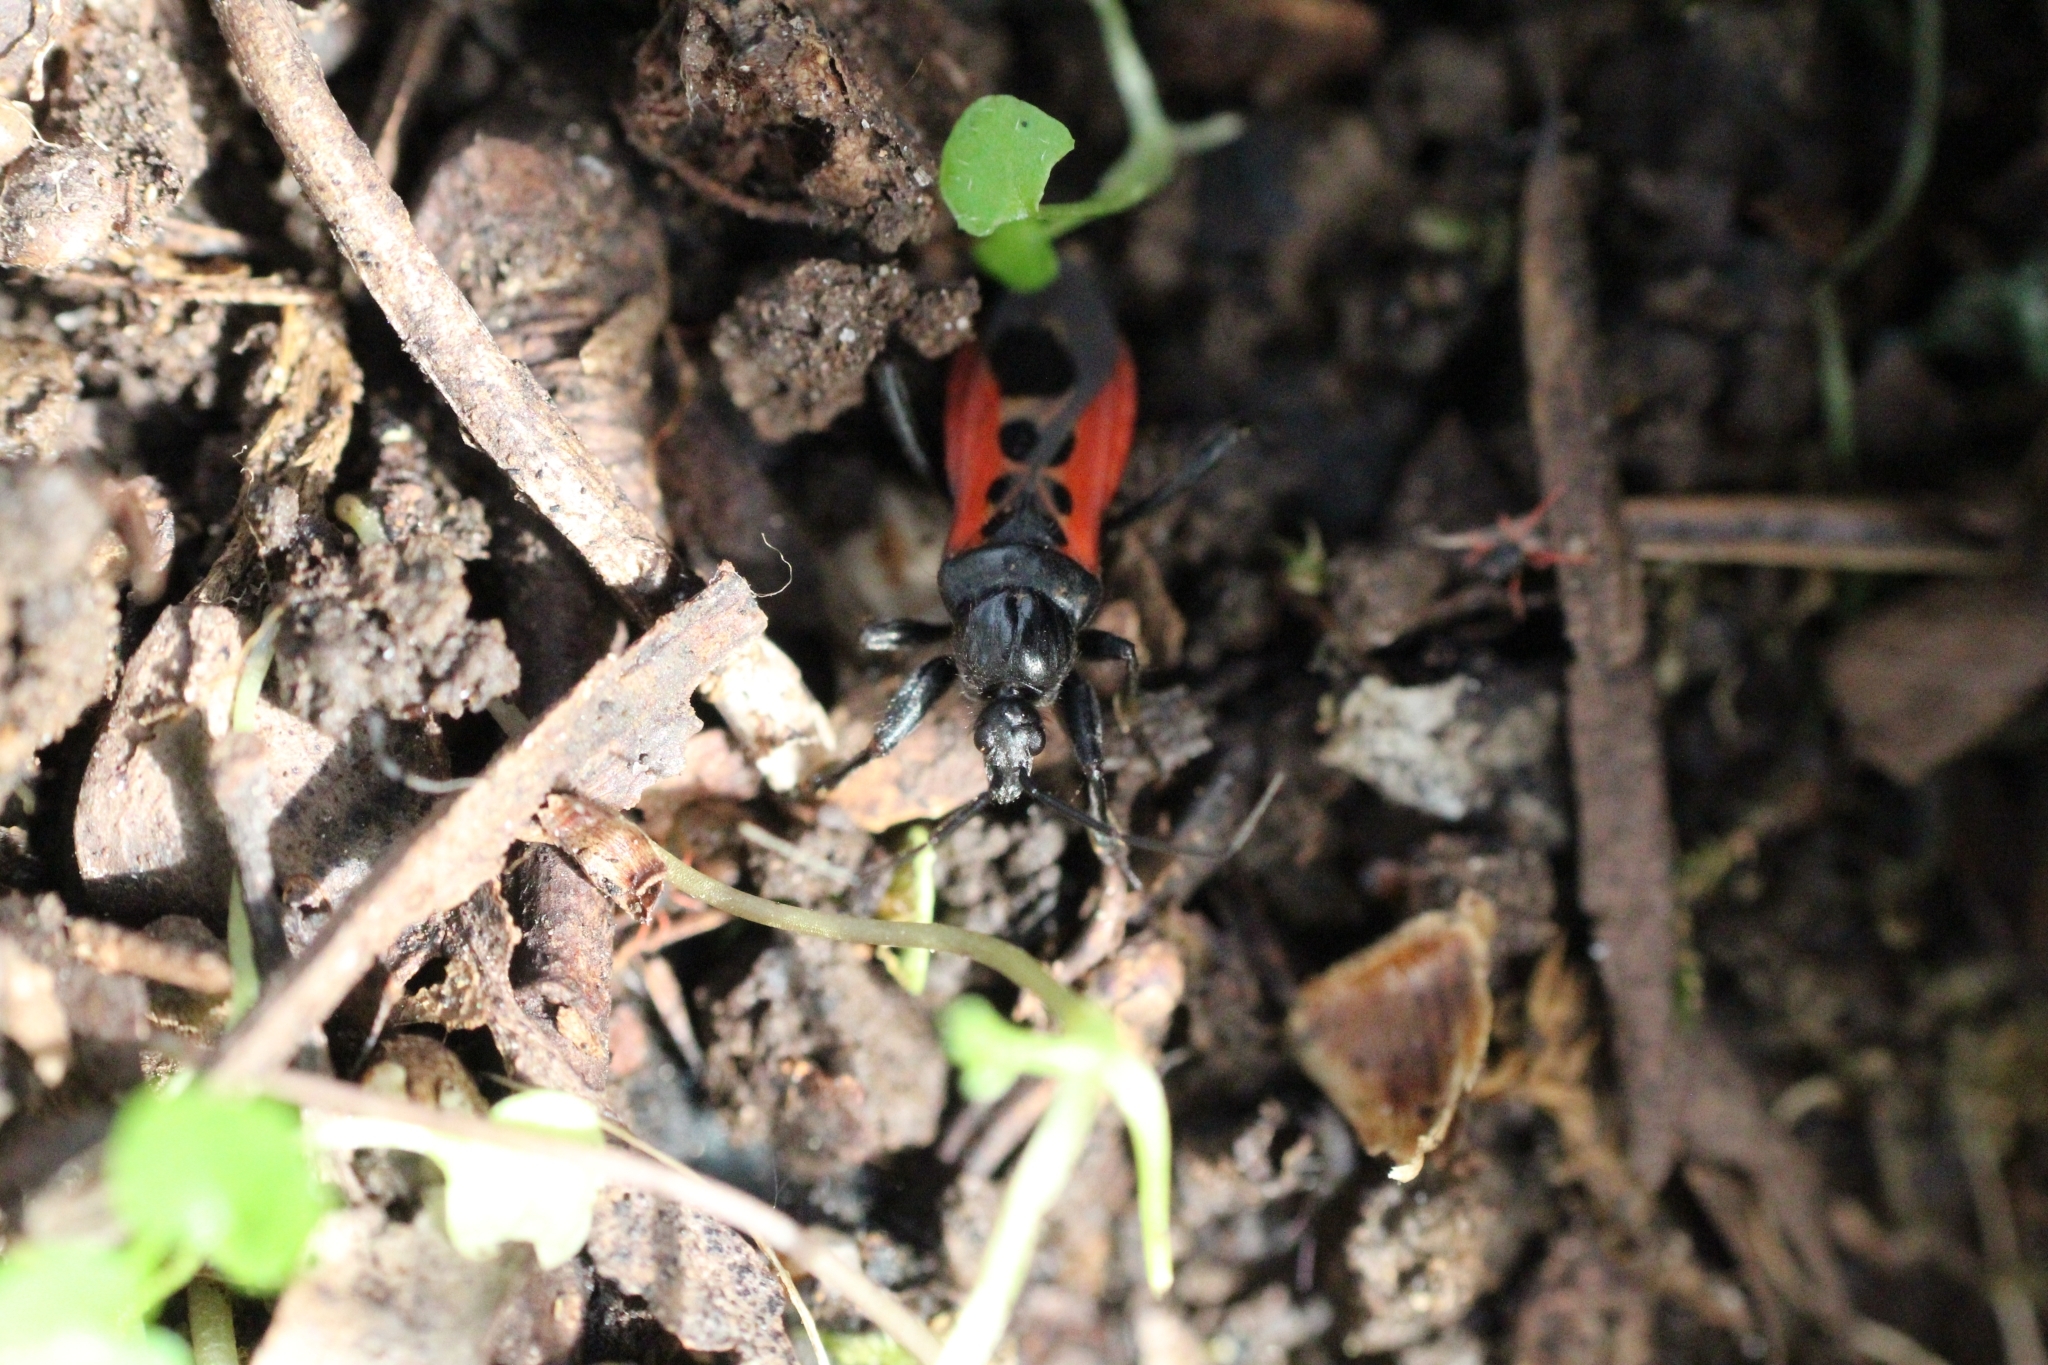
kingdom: Animalia
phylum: Arthropoda
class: Insecta
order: Hemiptera
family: Reduviidae
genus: Peirates
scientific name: Peirates stridulus
